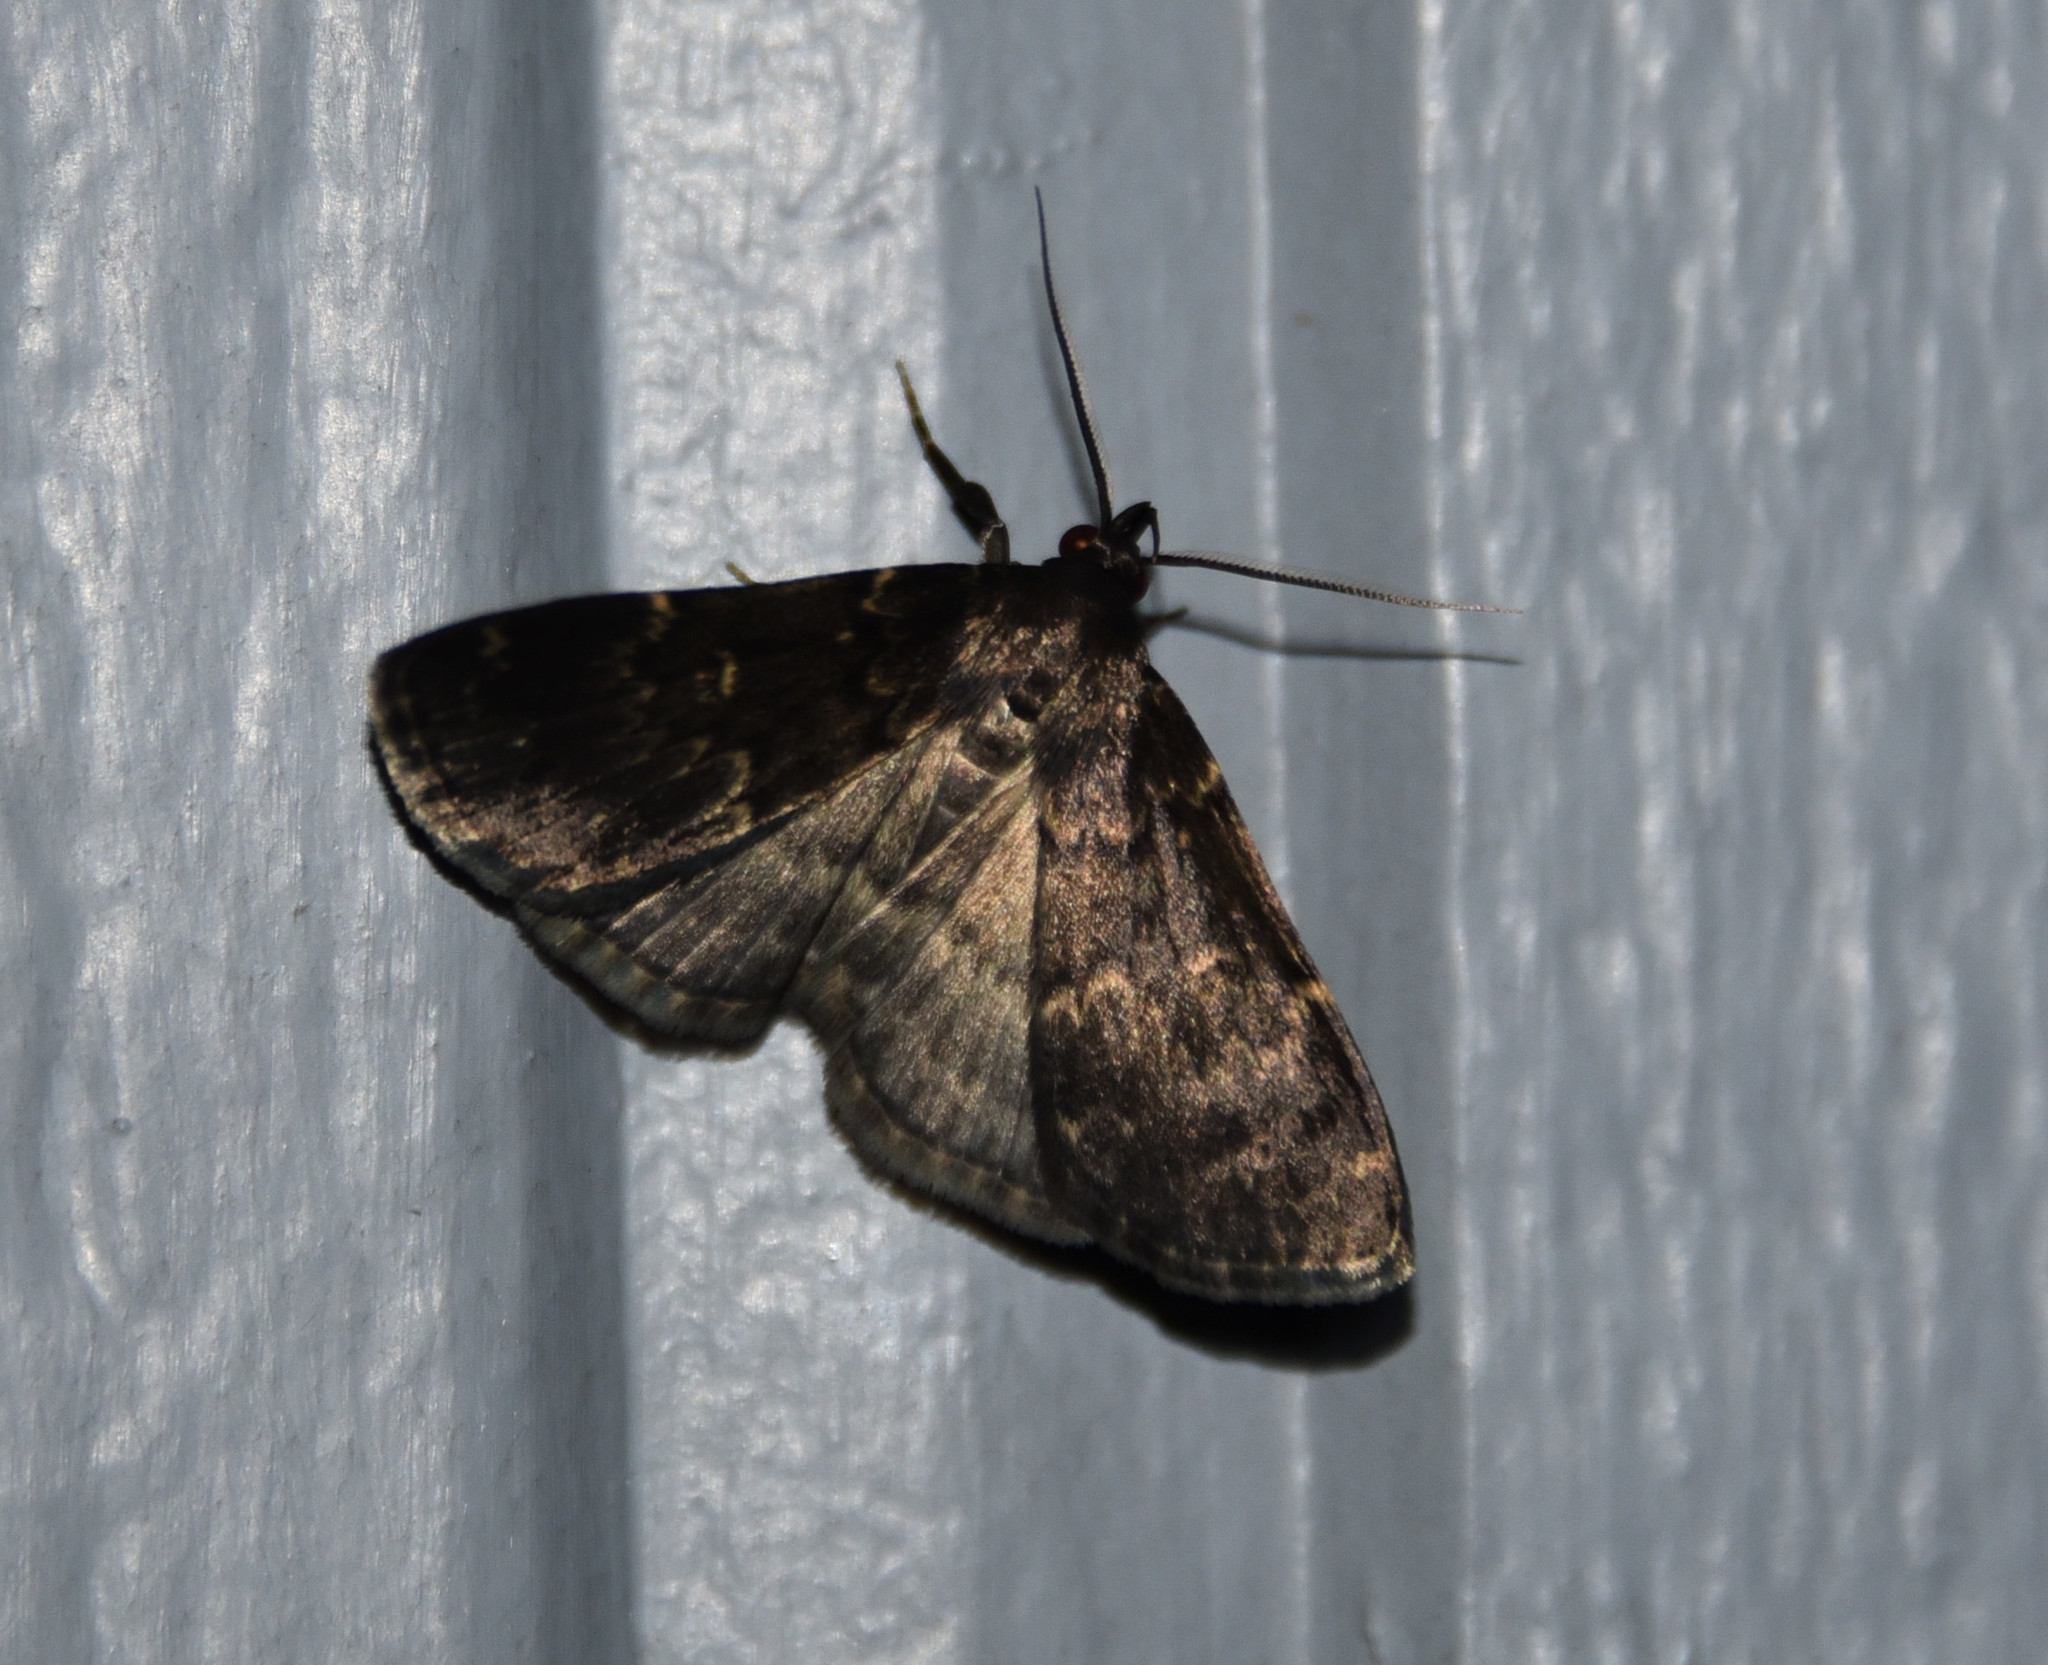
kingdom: Animalia
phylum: Arthropoda
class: Insecta
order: Lepidoptera
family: Erebidae
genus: Idia
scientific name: Idia lubricalis
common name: Twin-striped tabby
